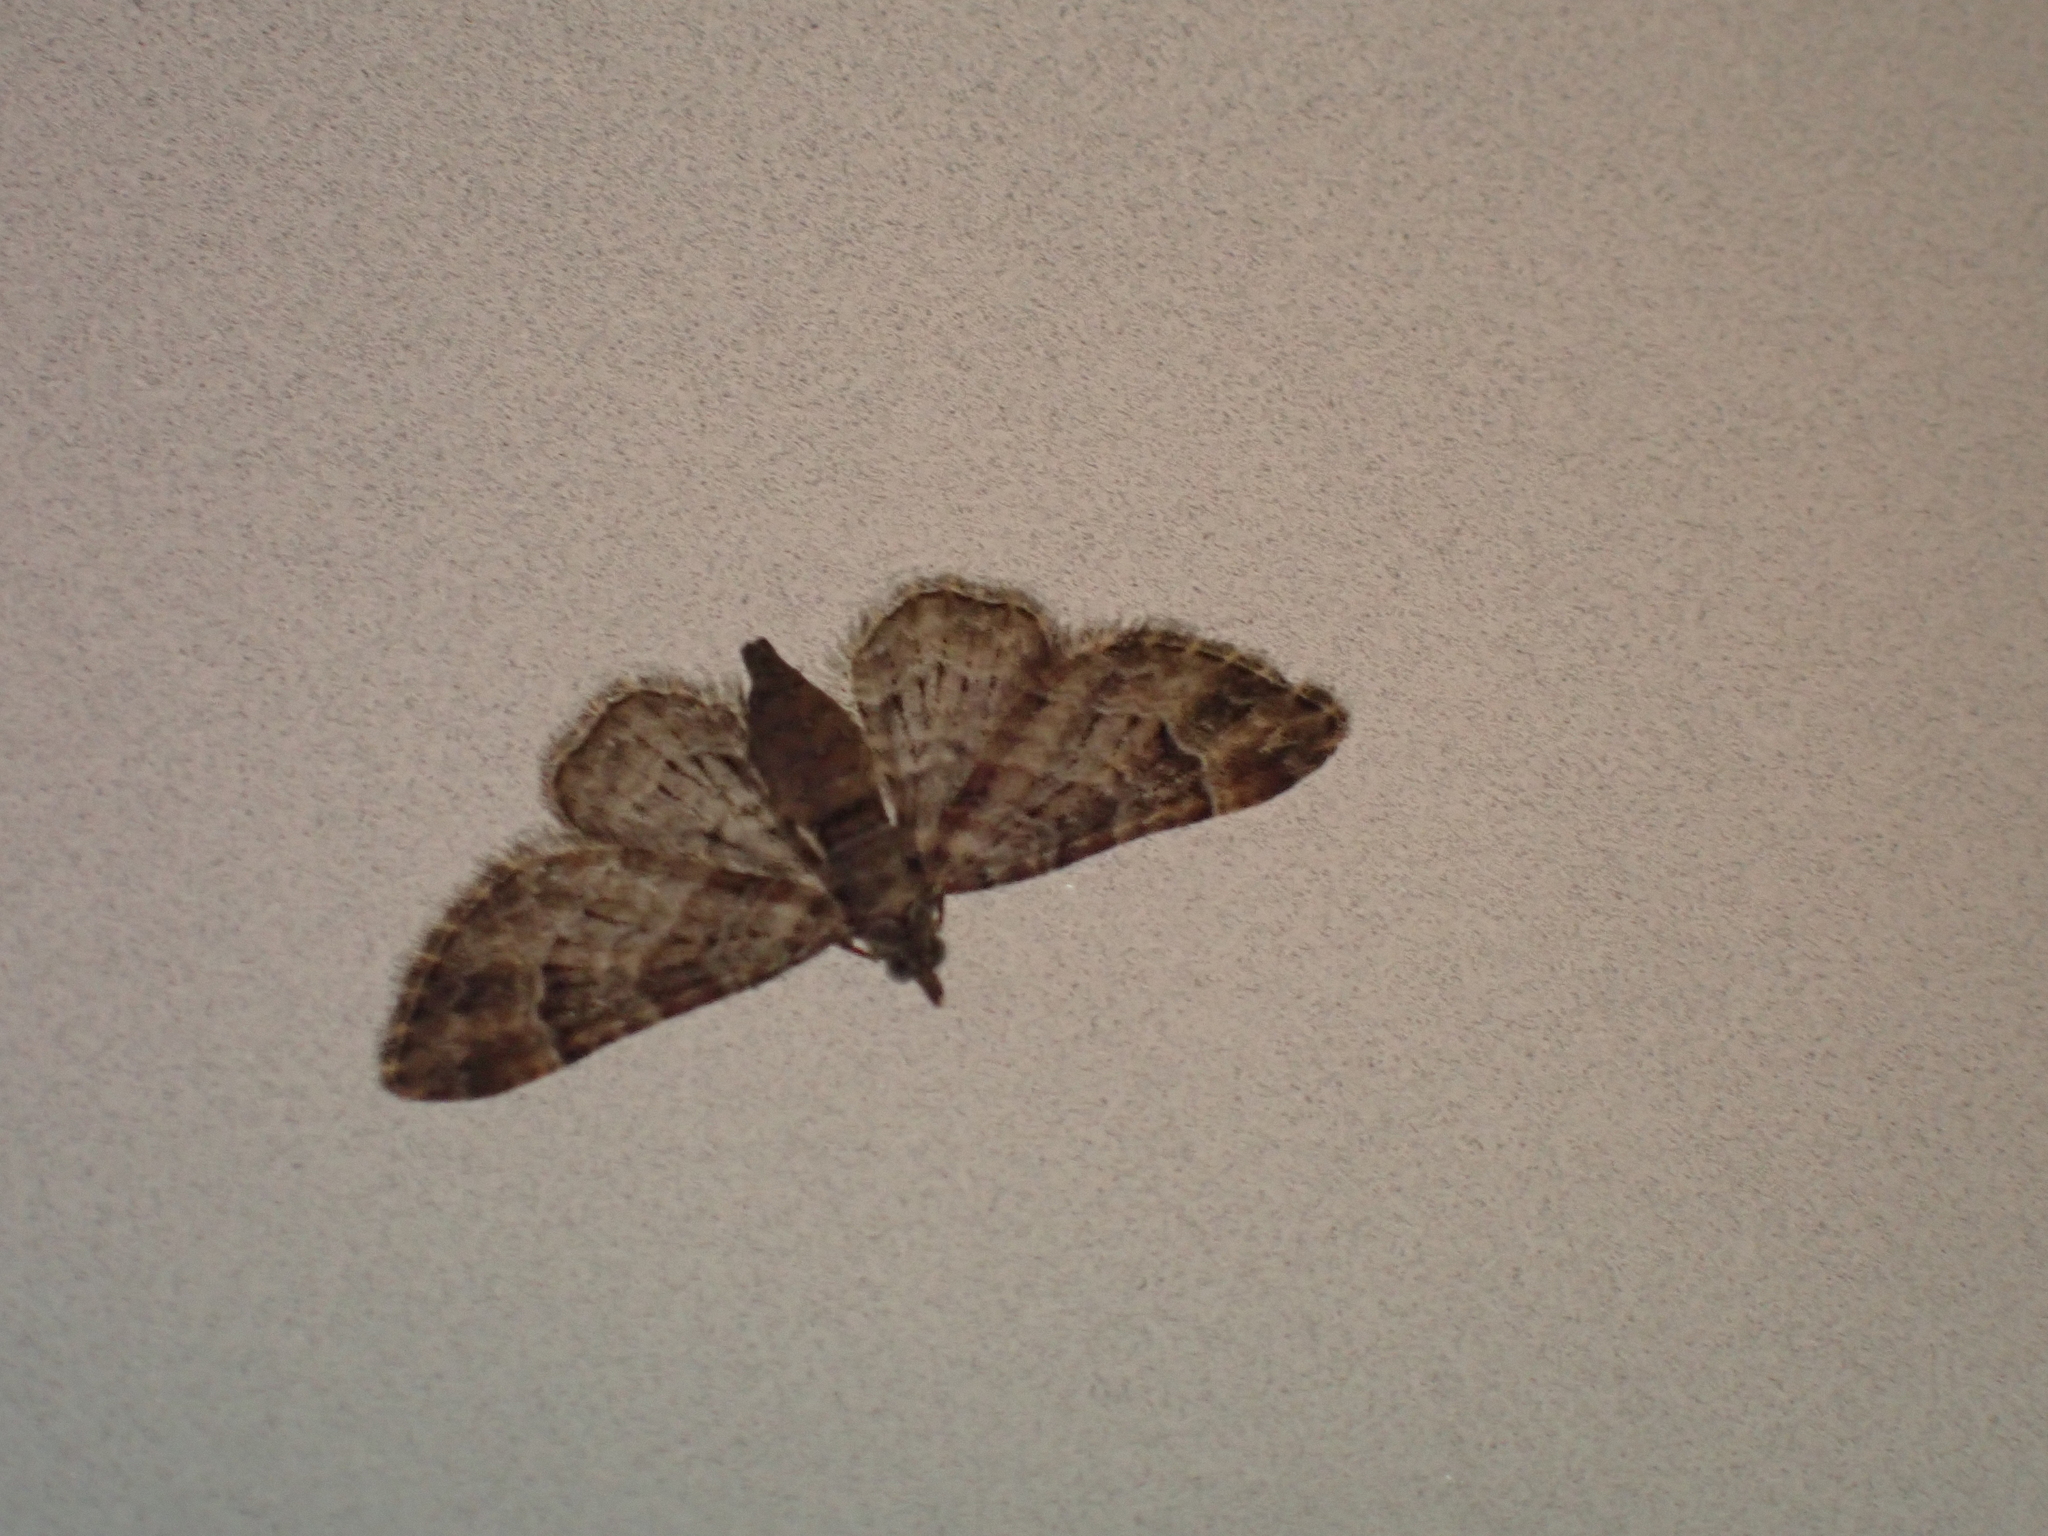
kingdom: Animalia
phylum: Arthropoda
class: Insecta
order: Lepidoptera
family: Geometridae
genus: Gymnoscelis
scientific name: Gymnoscelis rufifasciata
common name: Double-striped pug
